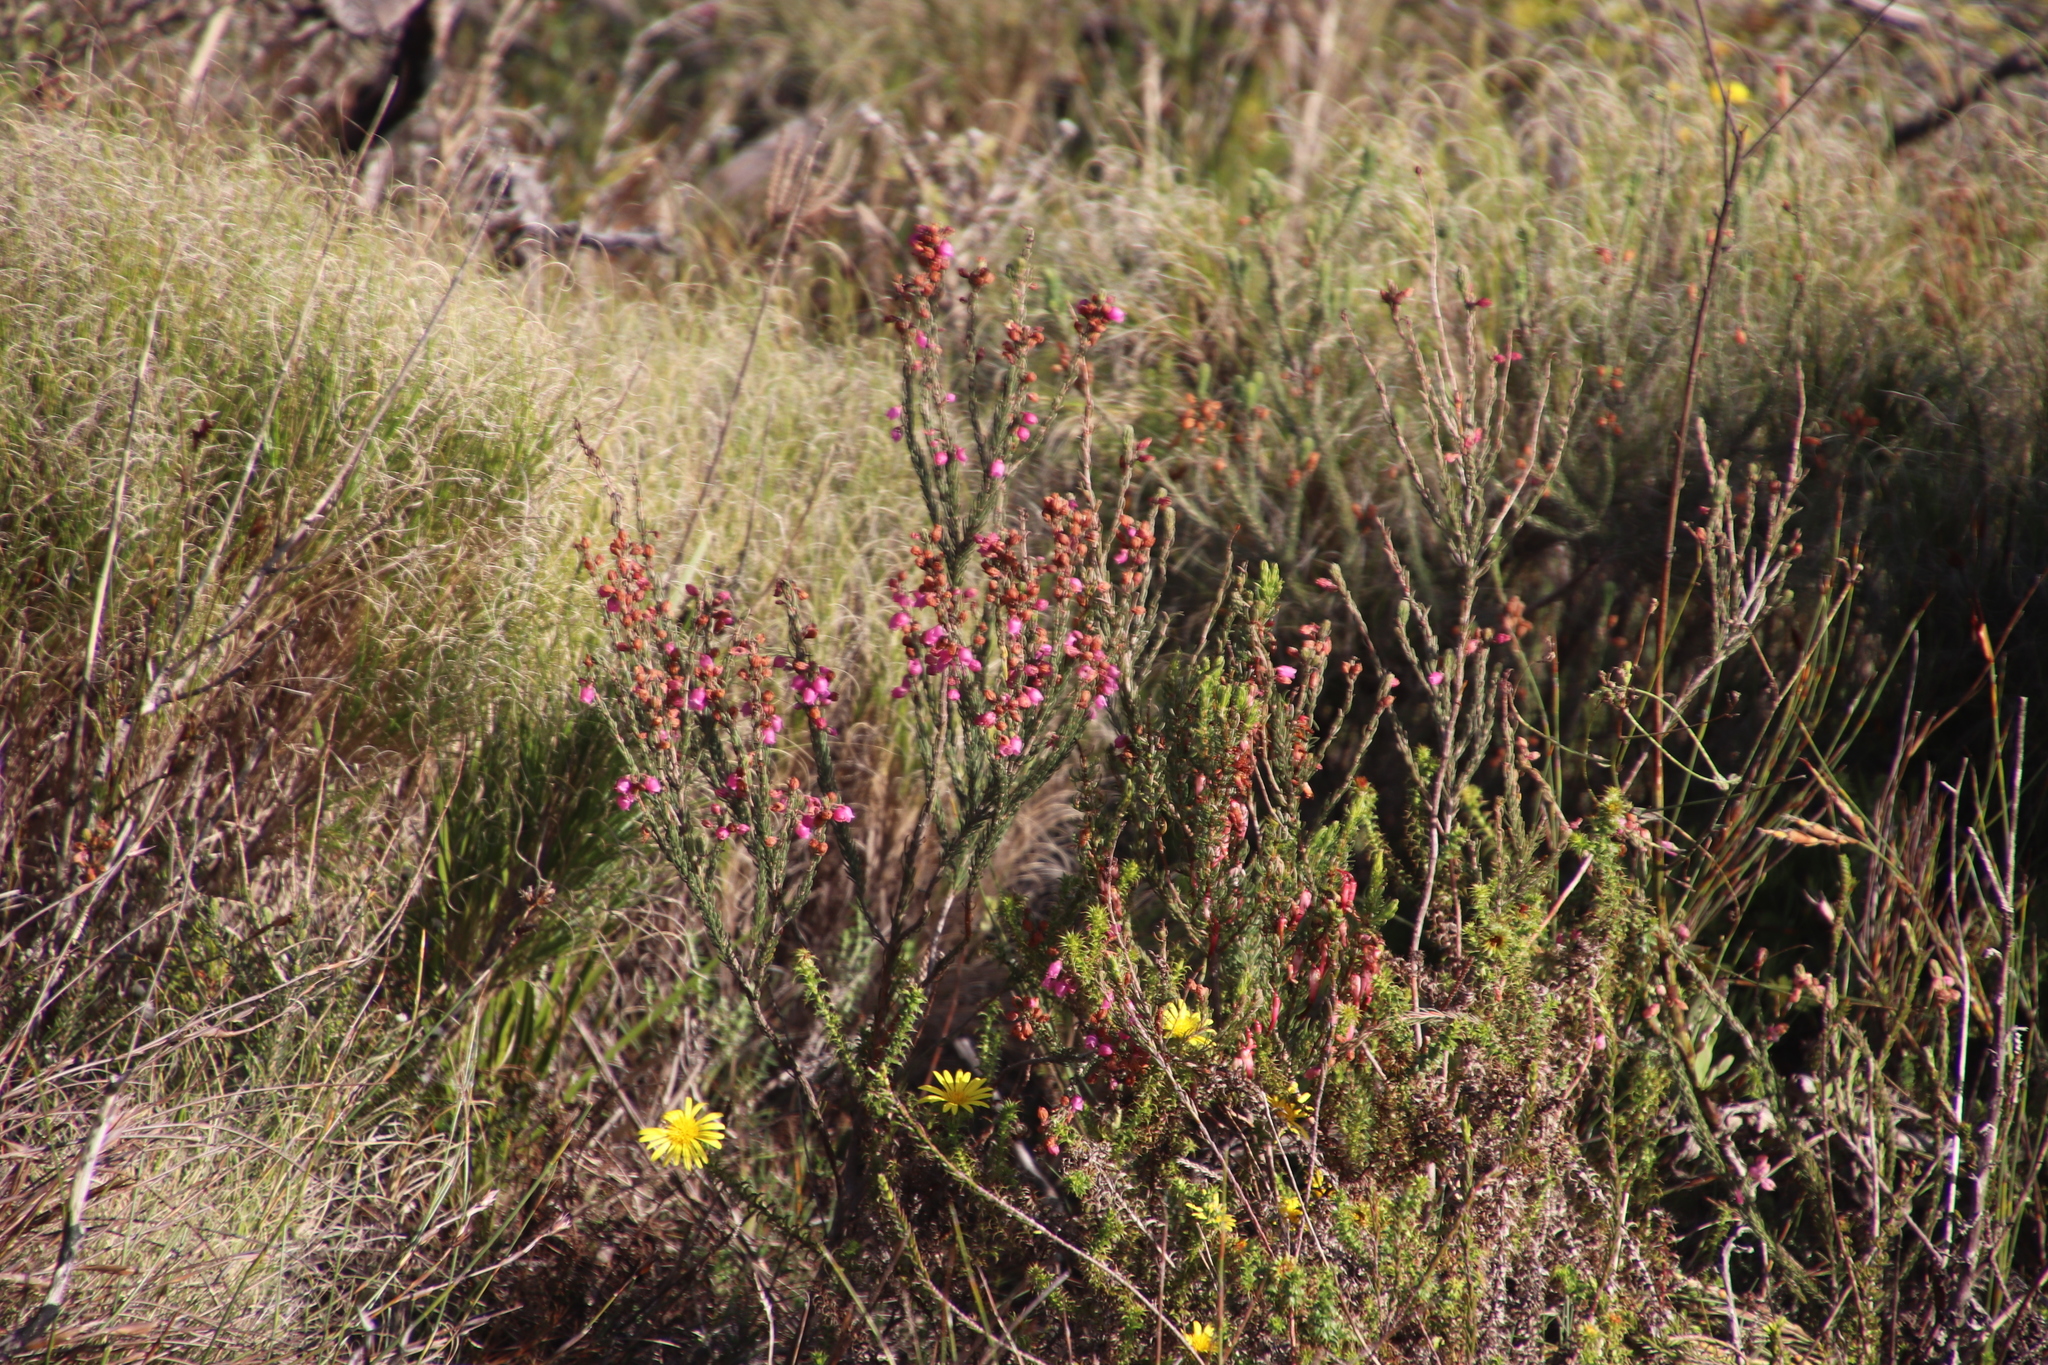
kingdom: Plantae
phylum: Tracheophyta
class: Magnoliopsida
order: Ericales
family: Ericaceae
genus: Erica
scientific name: Erica viscaria
